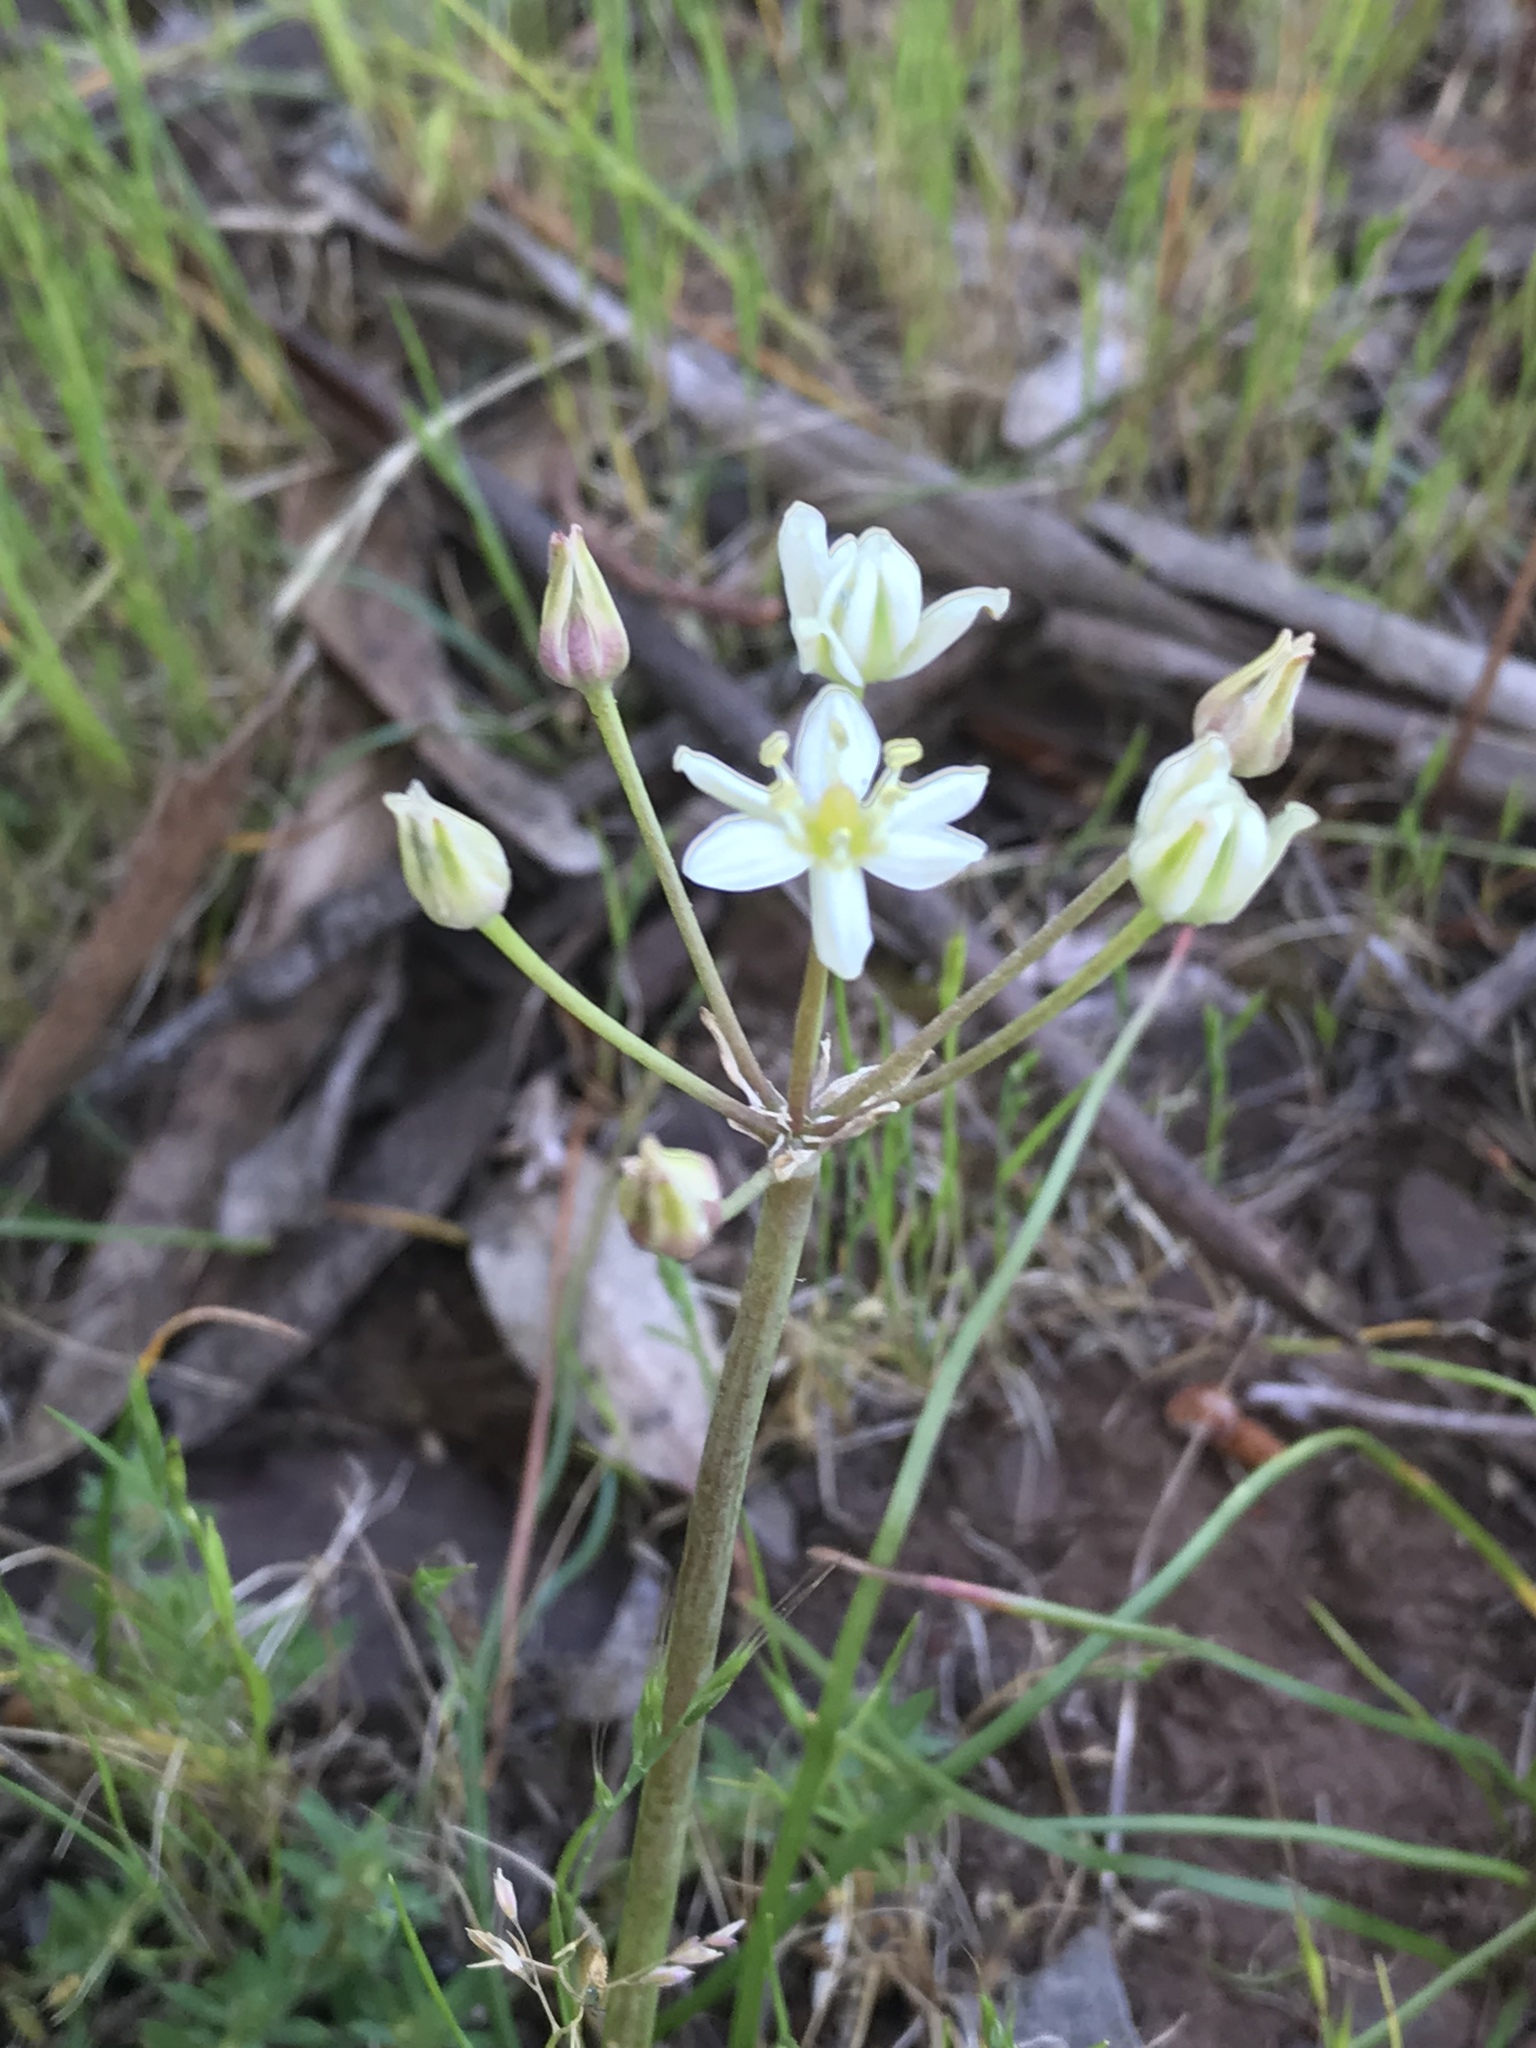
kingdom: Plantae
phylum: Tracheophyta
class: Liliopsida
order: Asparagales
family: Asparagaceae
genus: Muilla
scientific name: Muilla maritima
